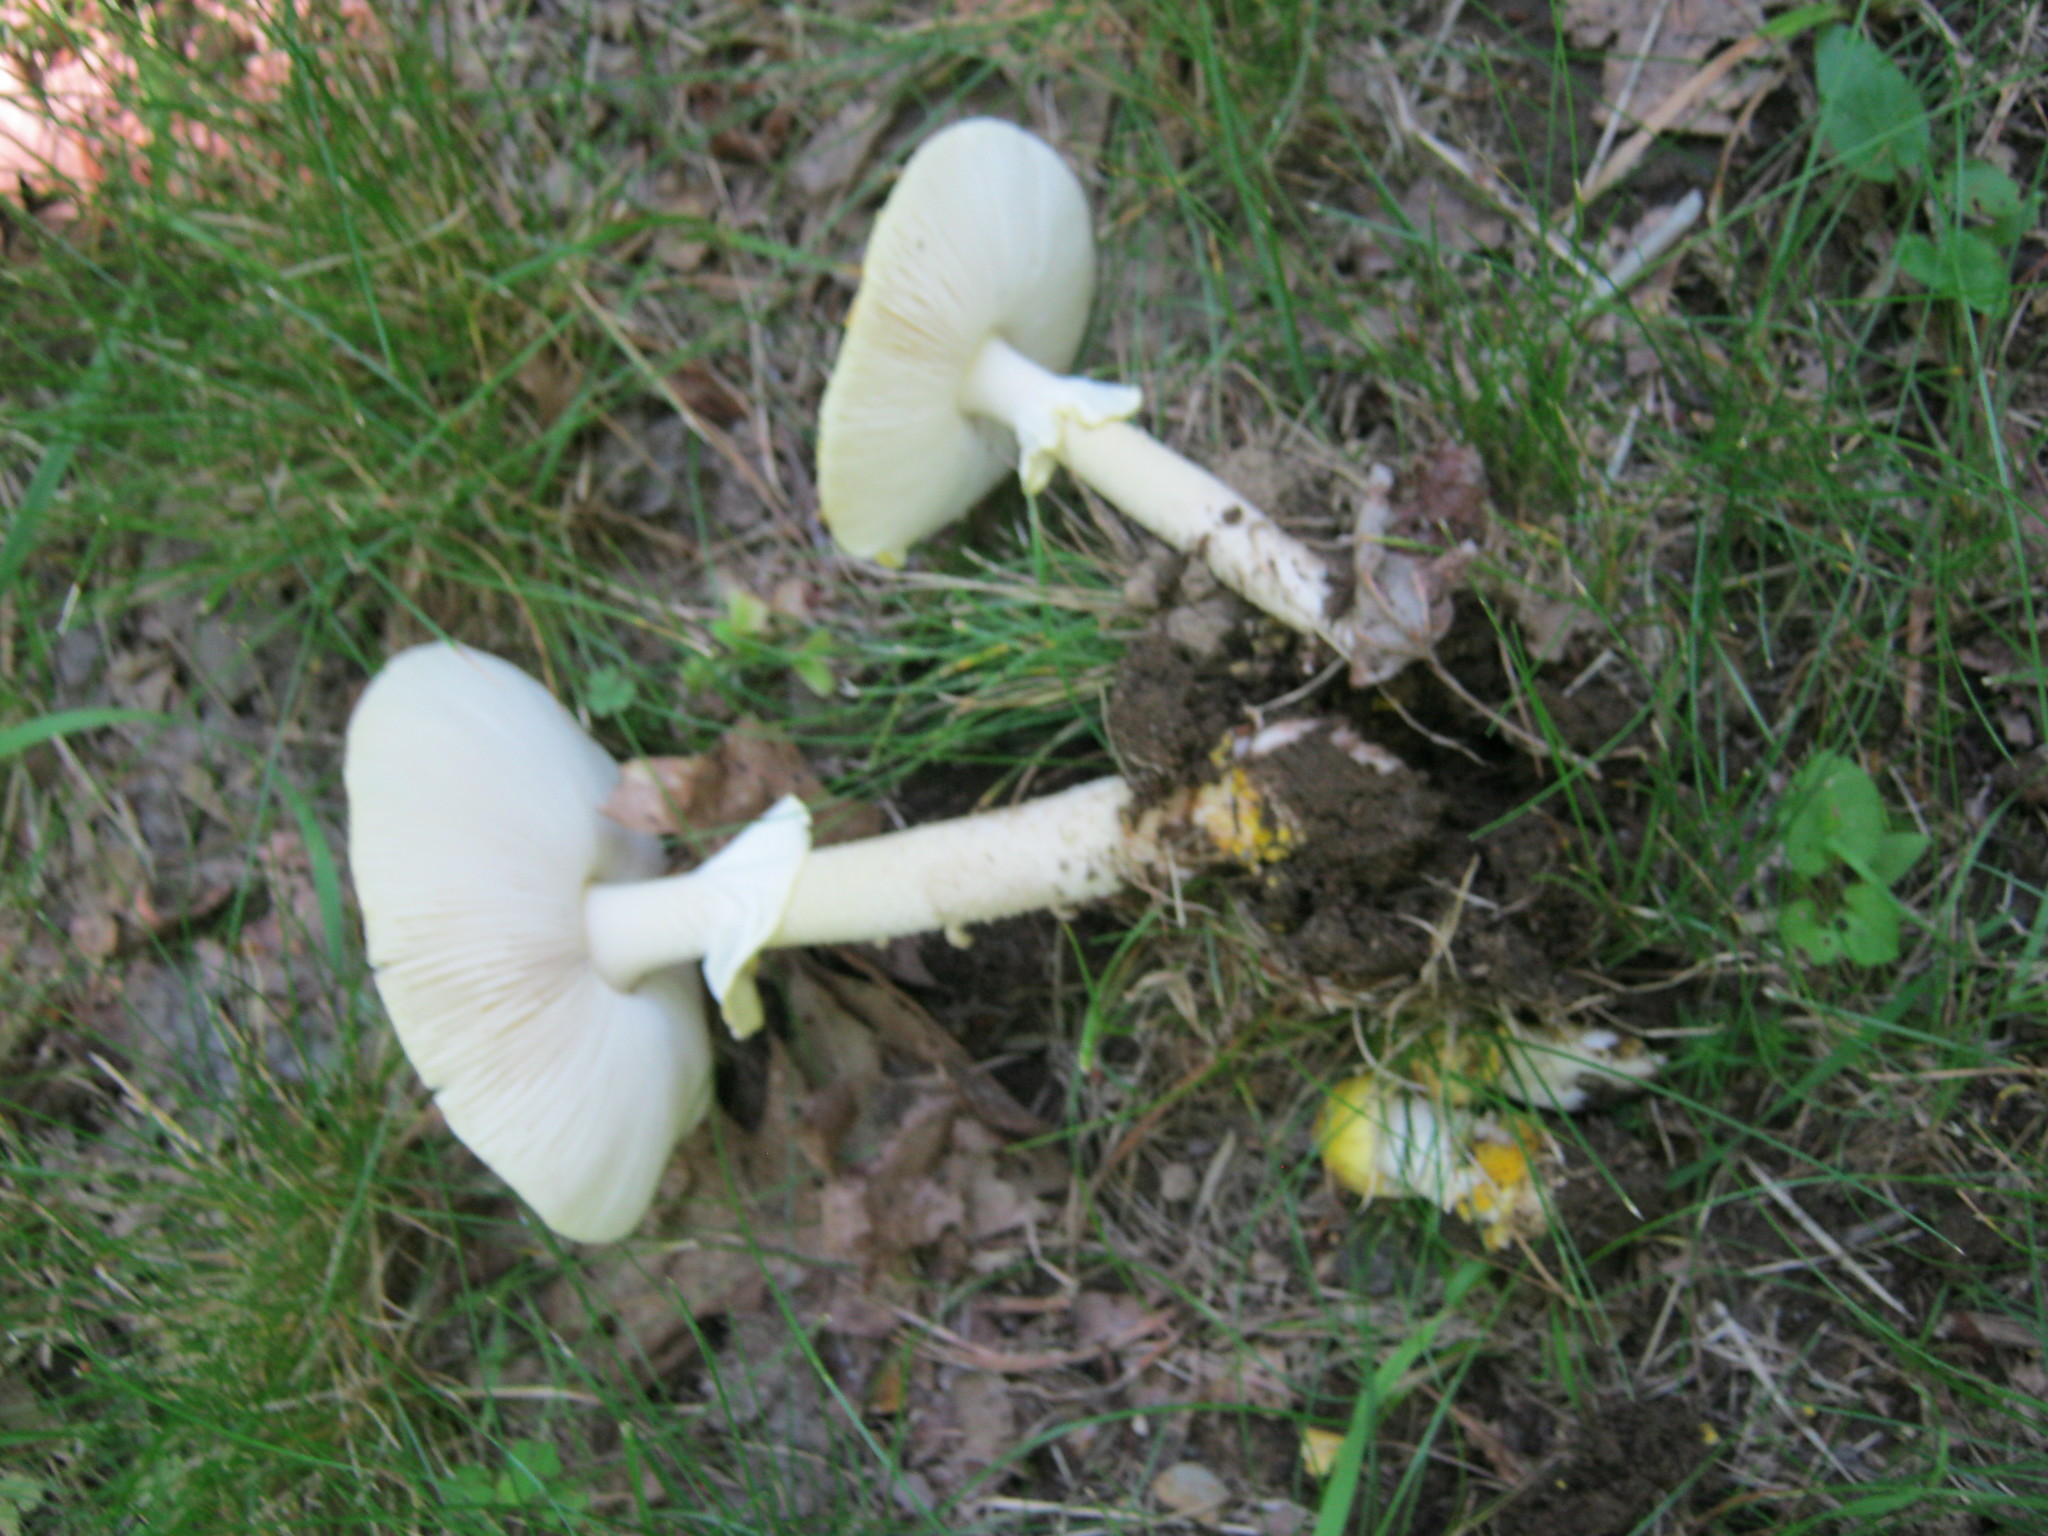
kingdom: Fungi
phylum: Basidiomycota
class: Agaricomycetes
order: Agaricales
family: Amanitaceae
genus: Amanita
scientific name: Amanita flavorubens
